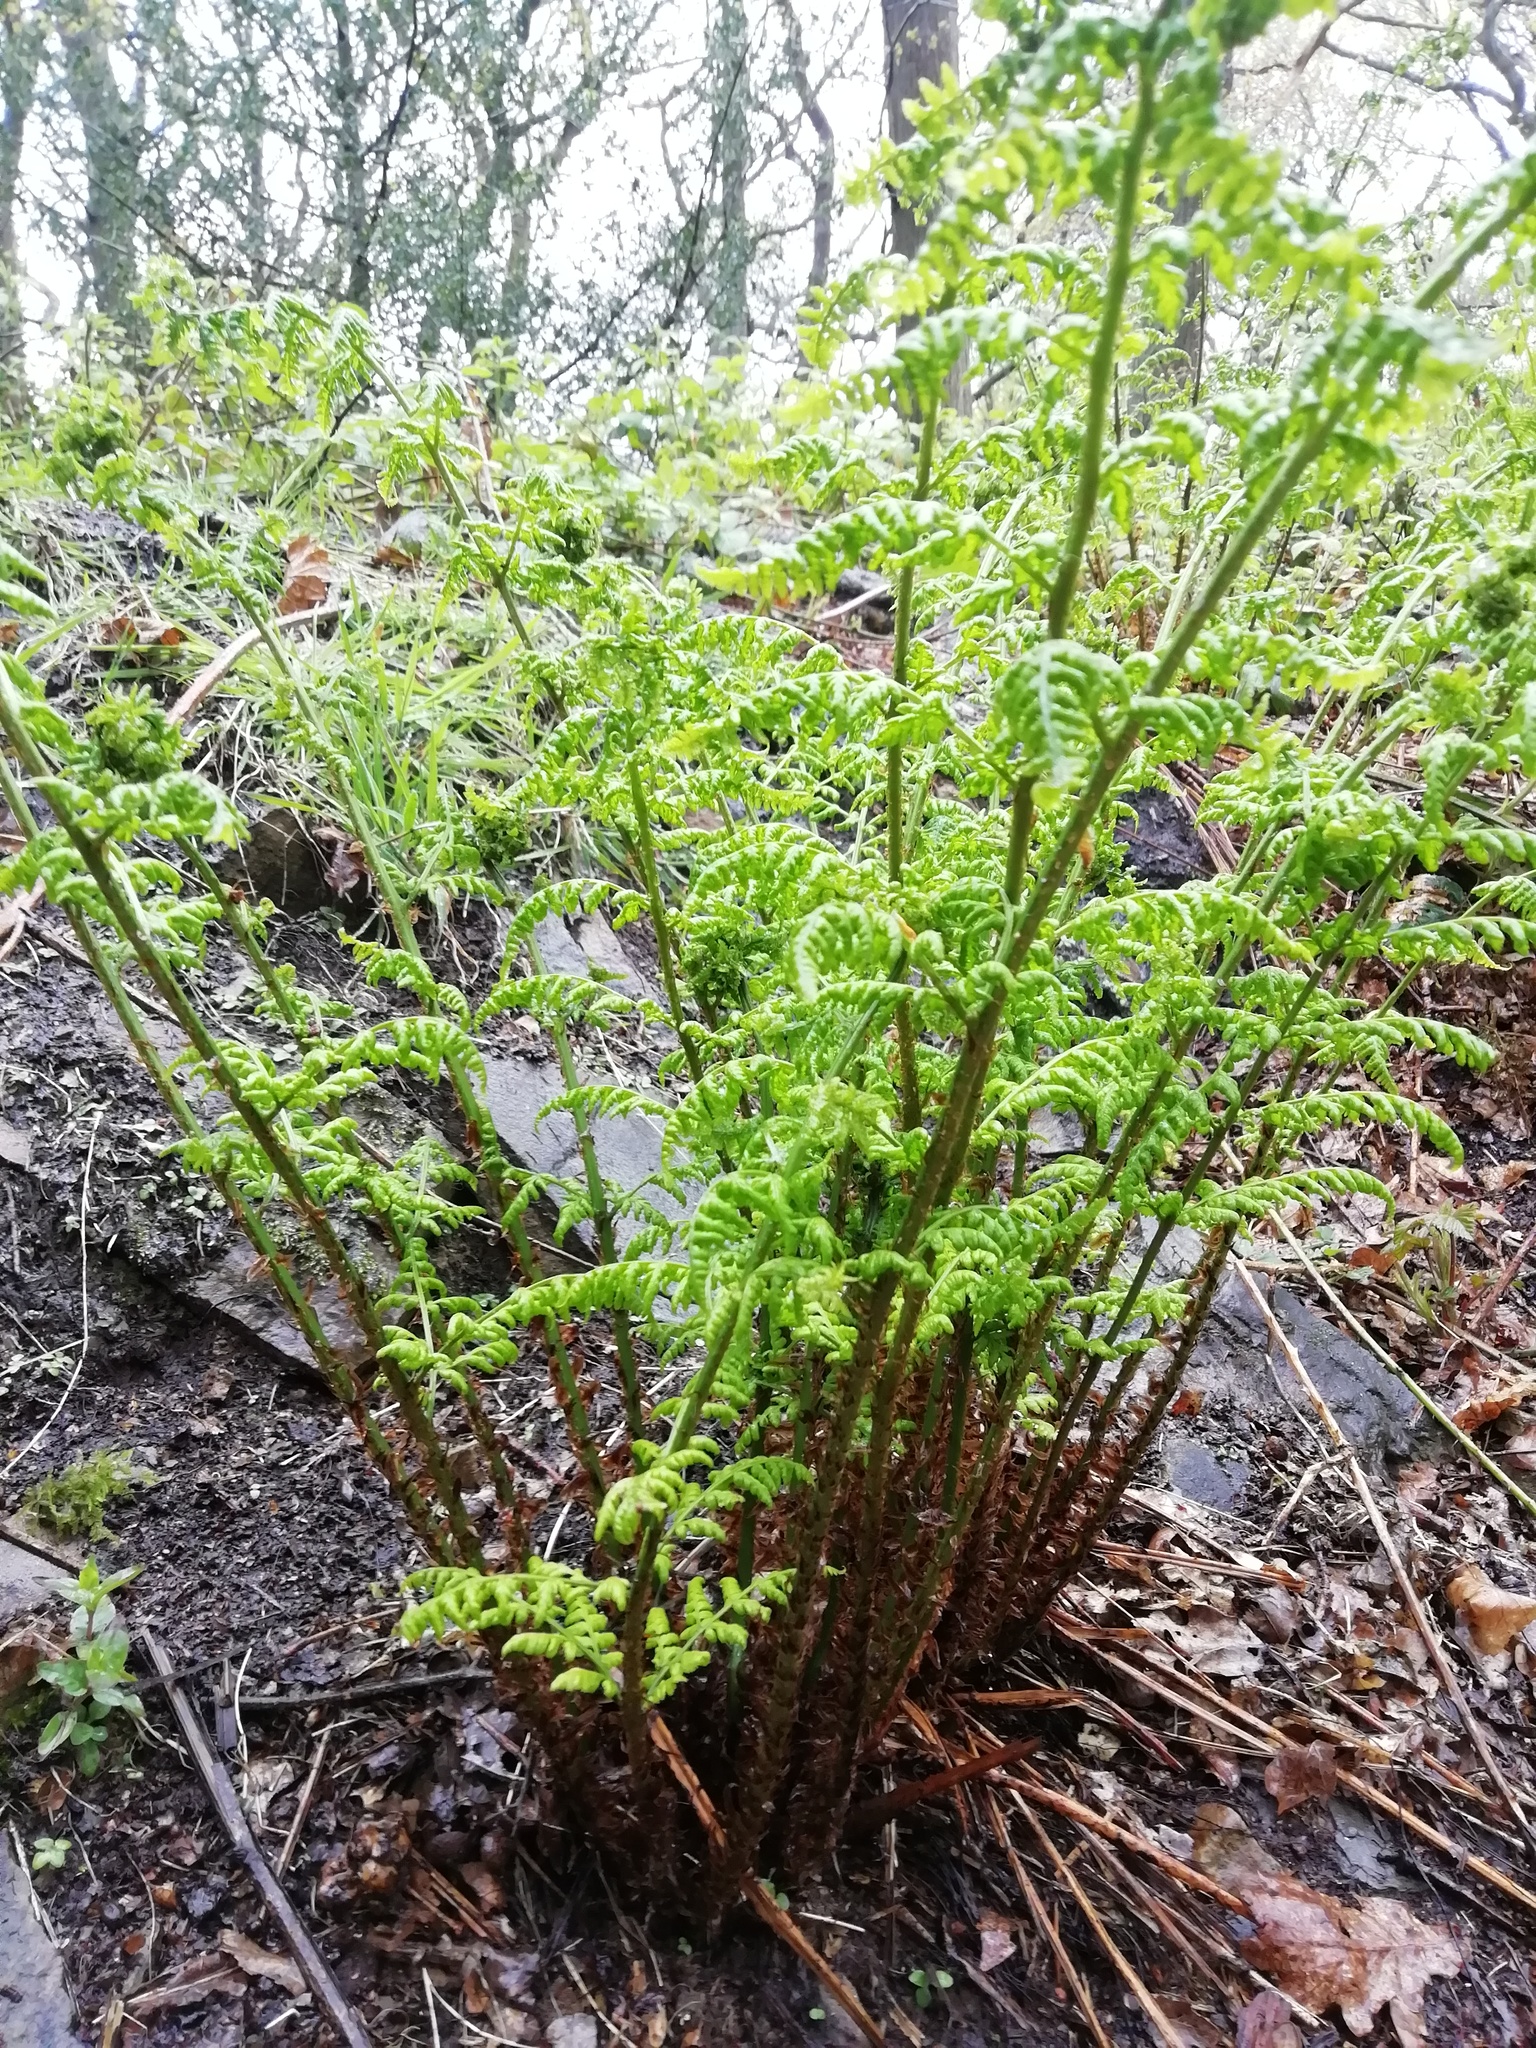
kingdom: Plantae
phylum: Tracheophyta
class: Polypodiopsida
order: Polypodiales
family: Dryopteridaceae
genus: Dryopteris
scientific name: Dryopteris dilatata
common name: Broad buckler-fern
